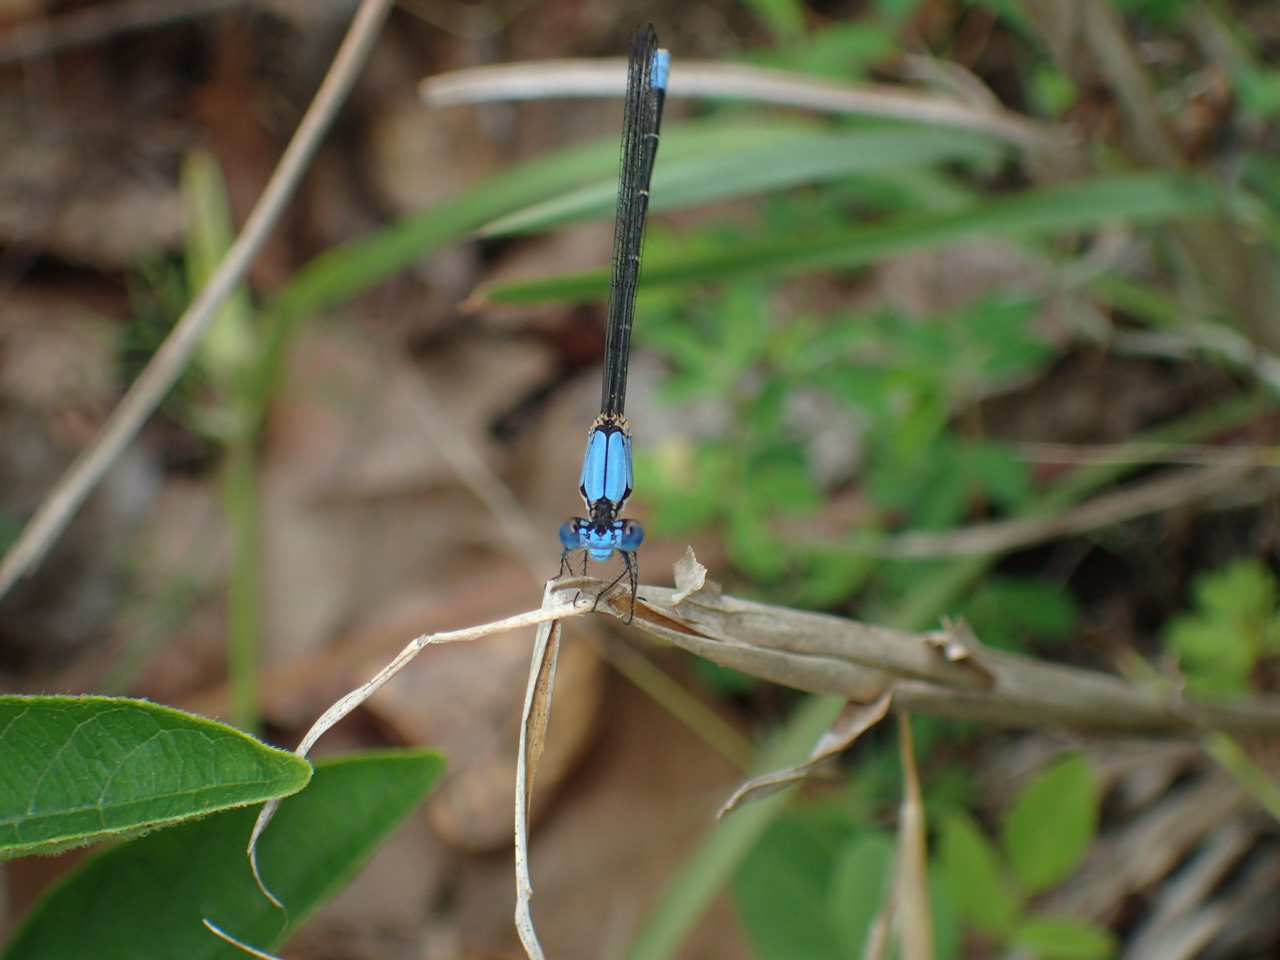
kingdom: Animalia
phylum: Arthropoda
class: Insecta
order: Odonata
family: Coenagrionidae
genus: Argia
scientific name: Argia apicalis
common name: Blue-fronted dancer
